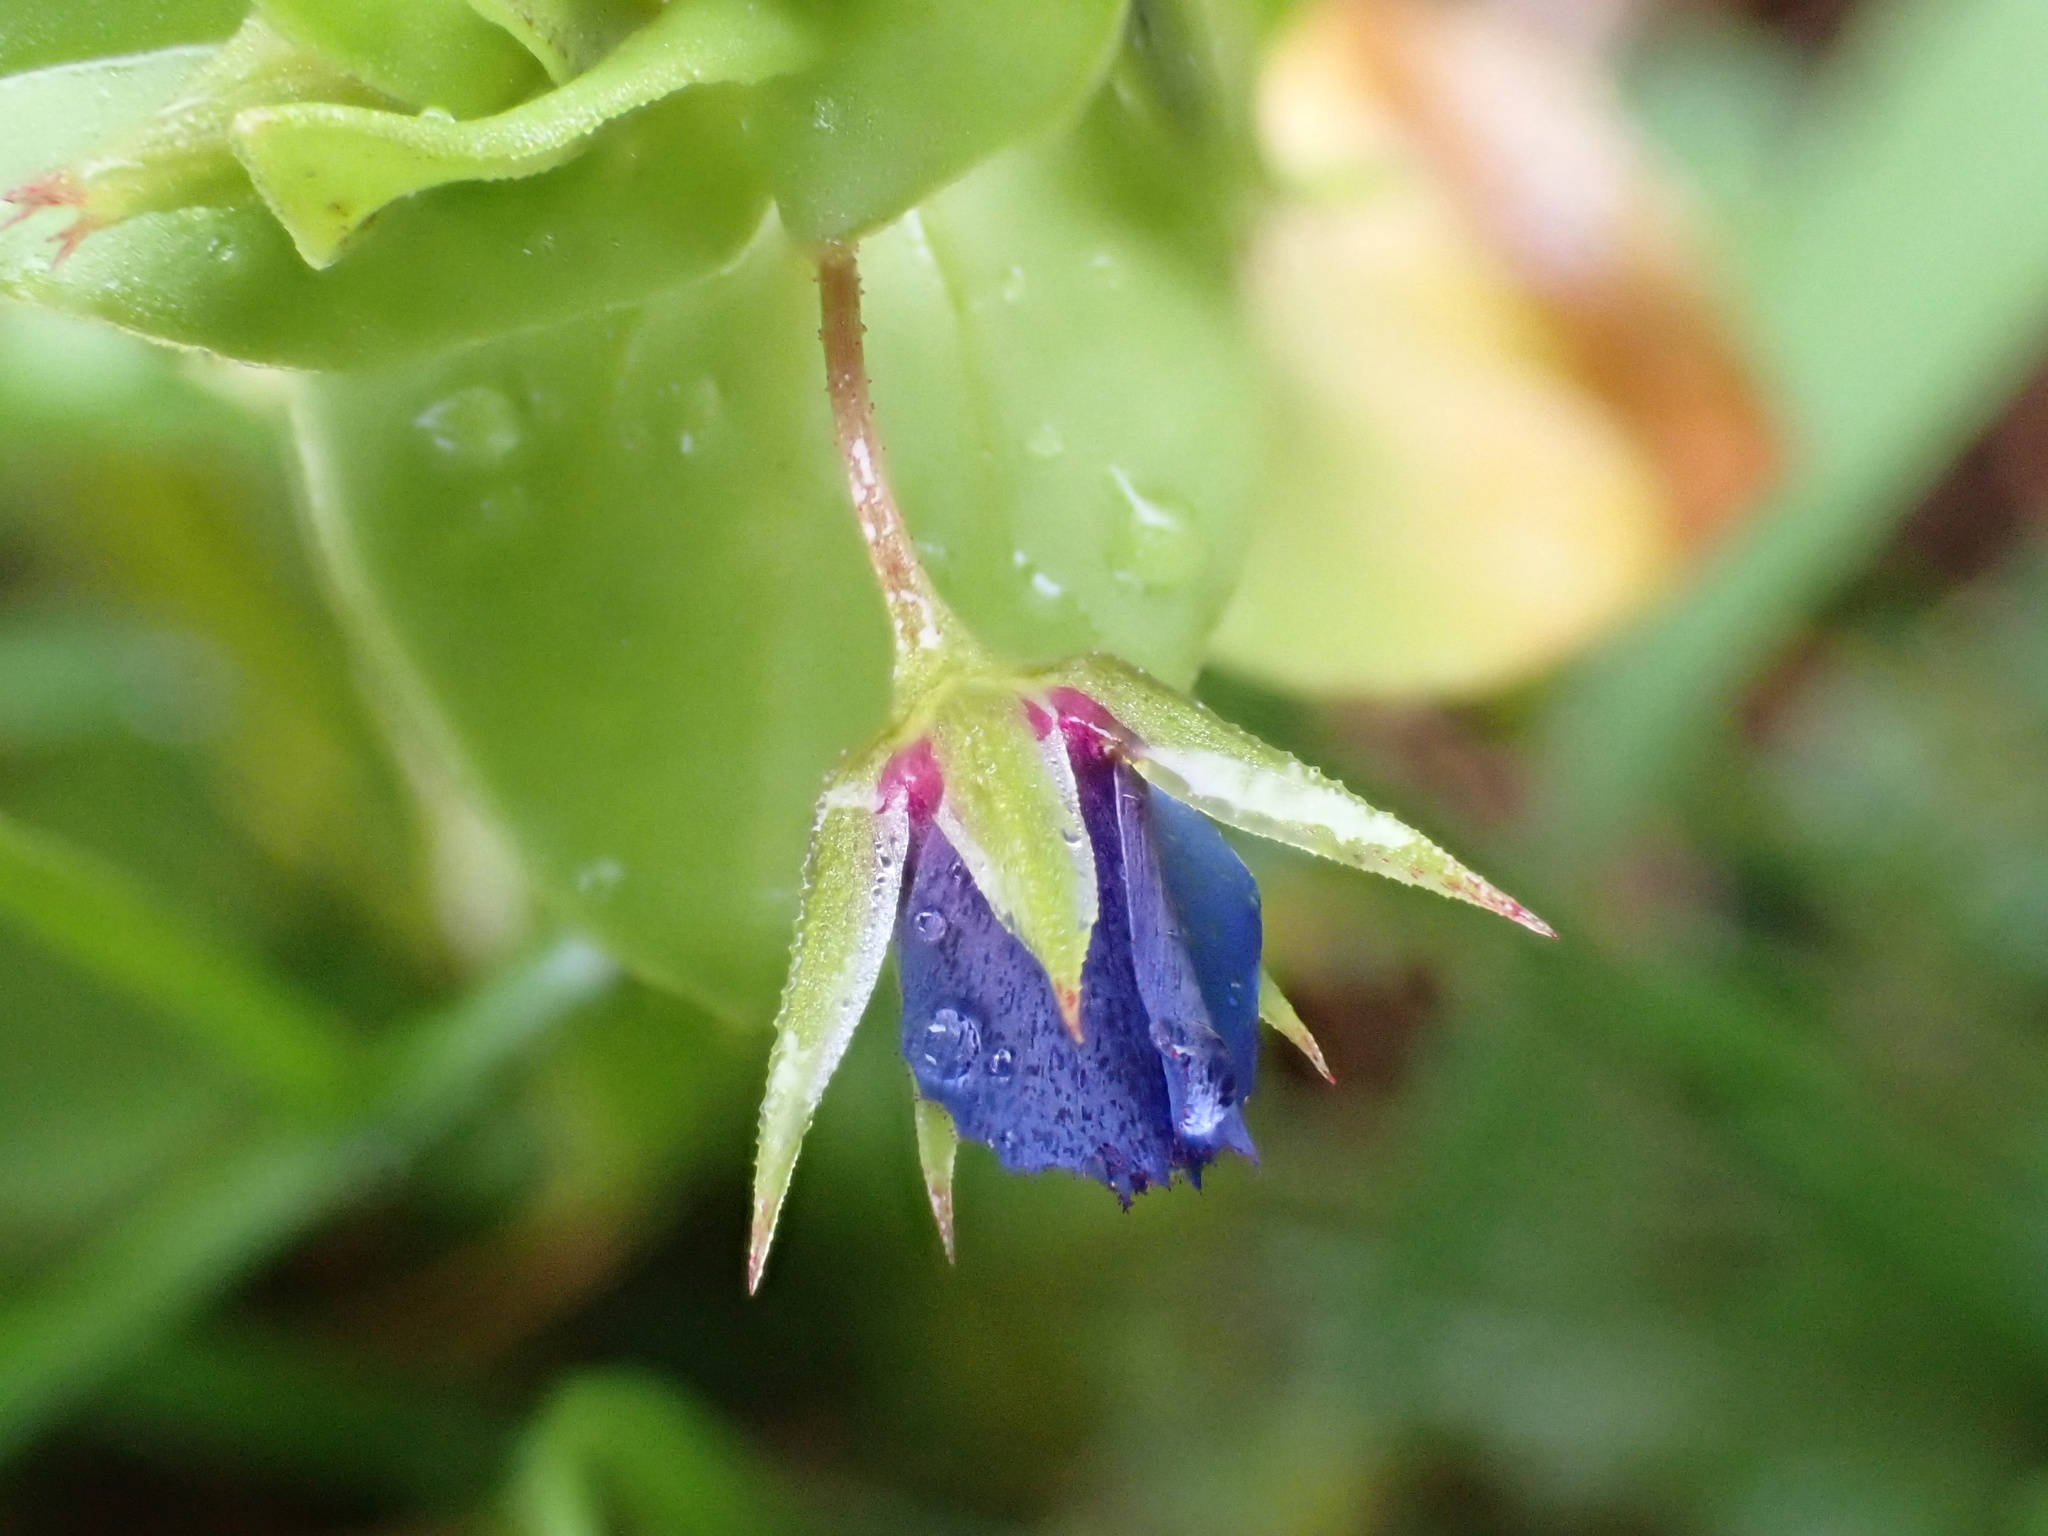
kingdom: Plantae
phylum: Tracheophyta
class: Magnoliopsida
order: Ericales
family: Primulaceae
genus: Lysimachia
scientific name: Lysimachia loeflingii
